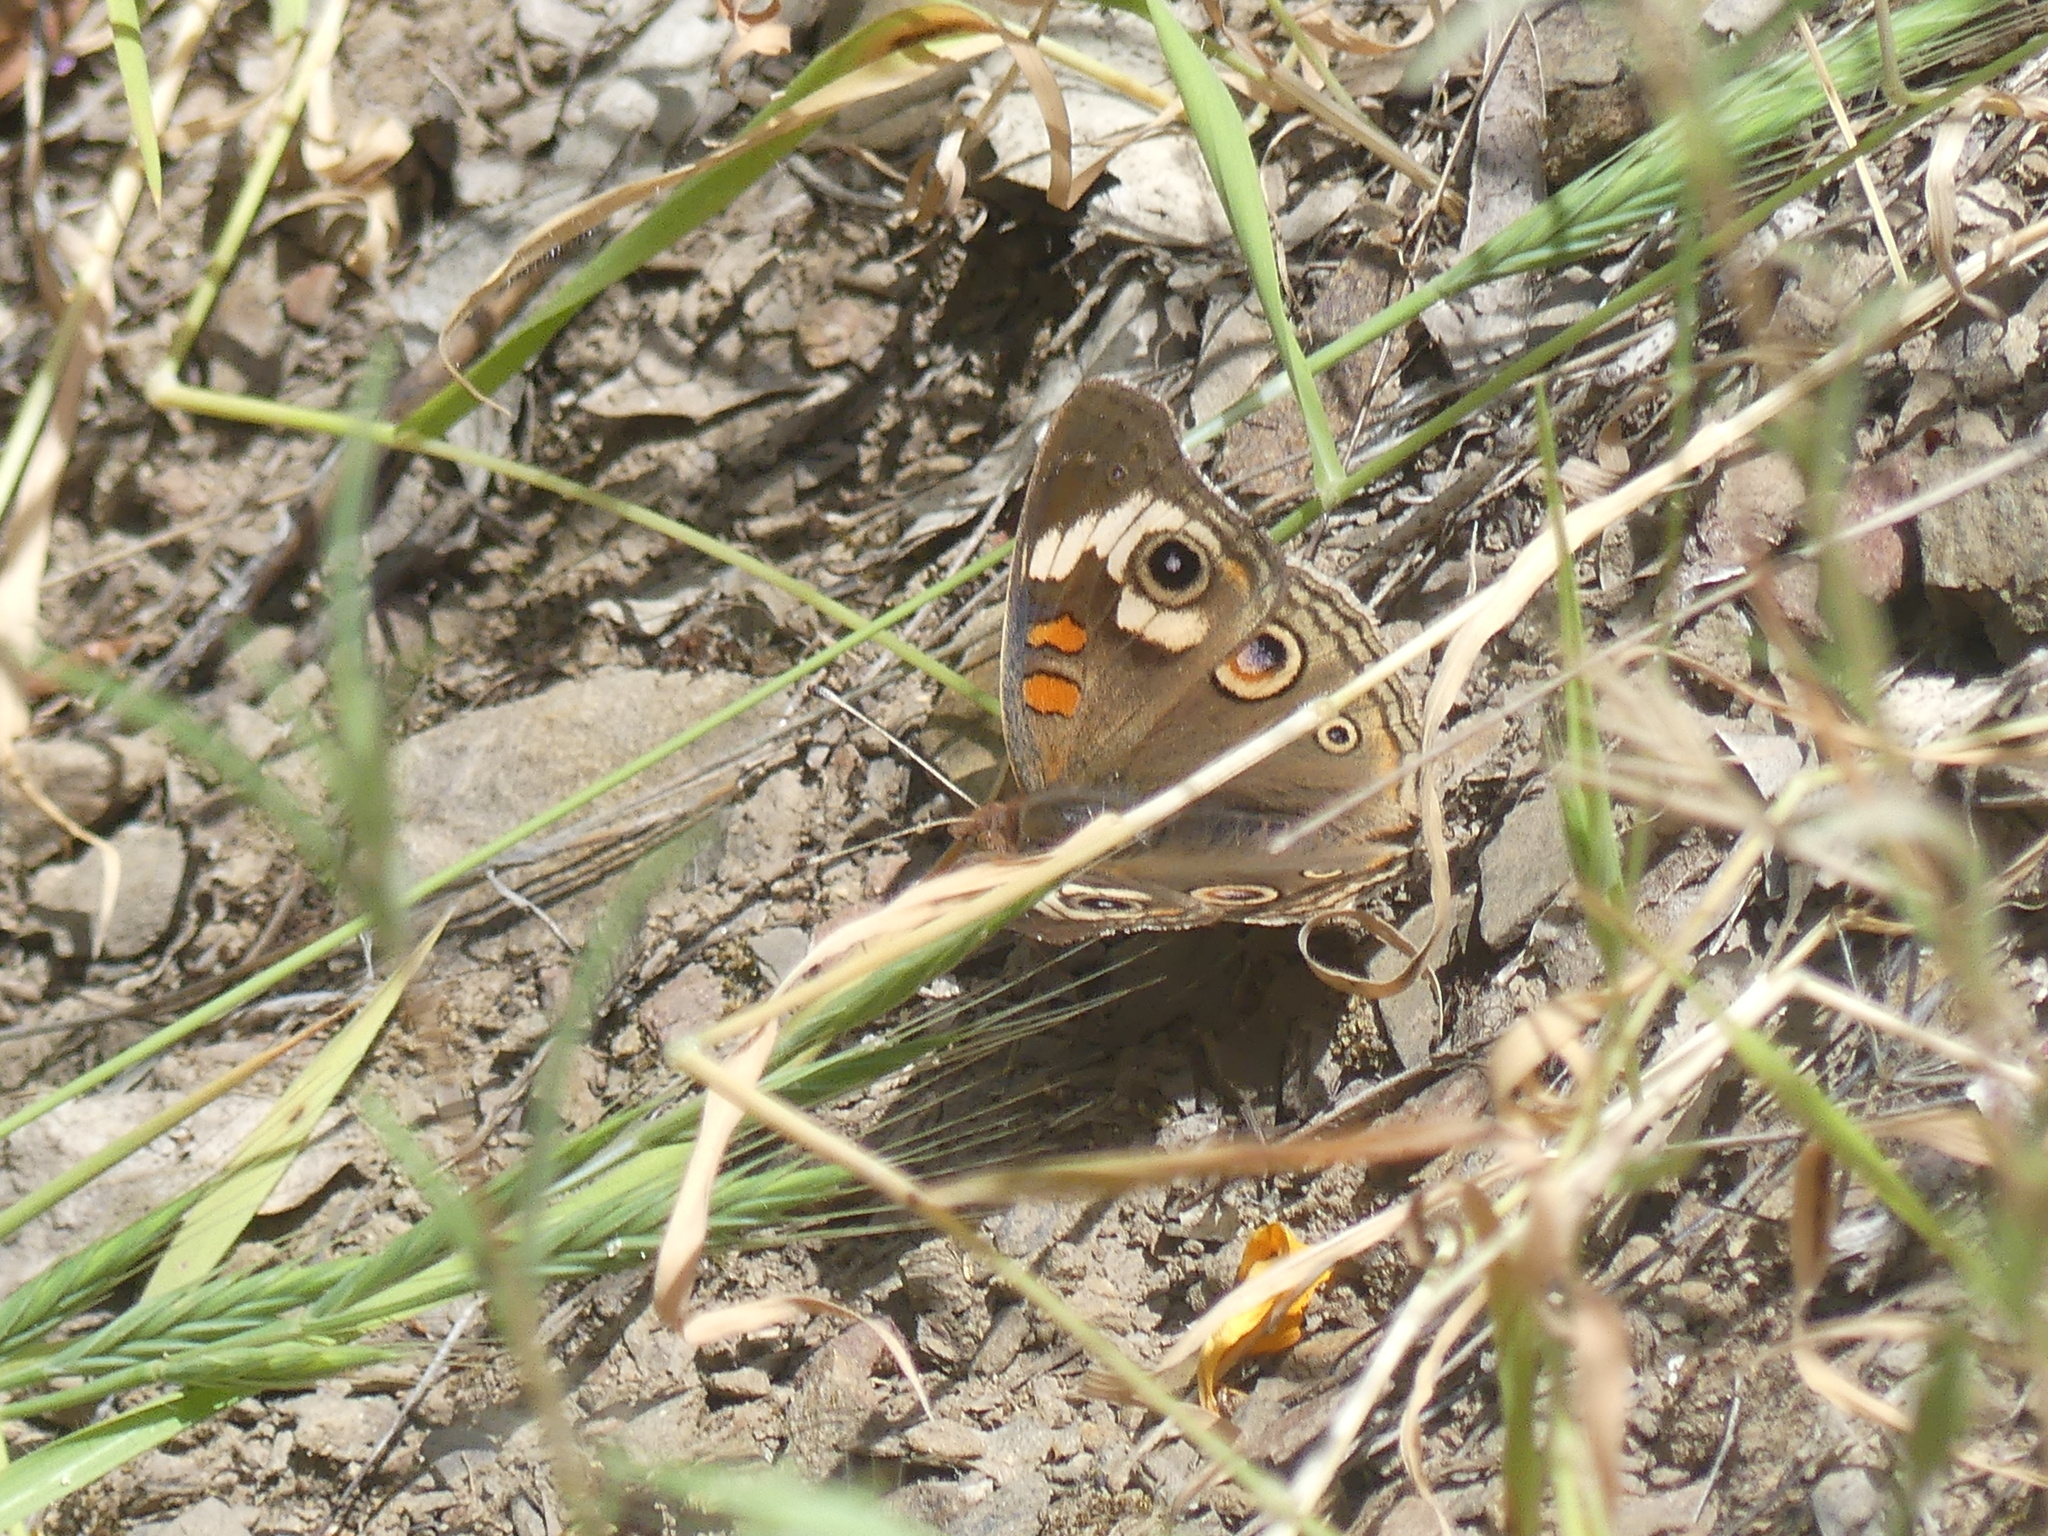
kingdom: Animalia
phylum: Arthropoda
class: Insecta
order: Lepidoptera
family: Nymphalidae
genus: Junonia
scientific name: Junonia grisea
